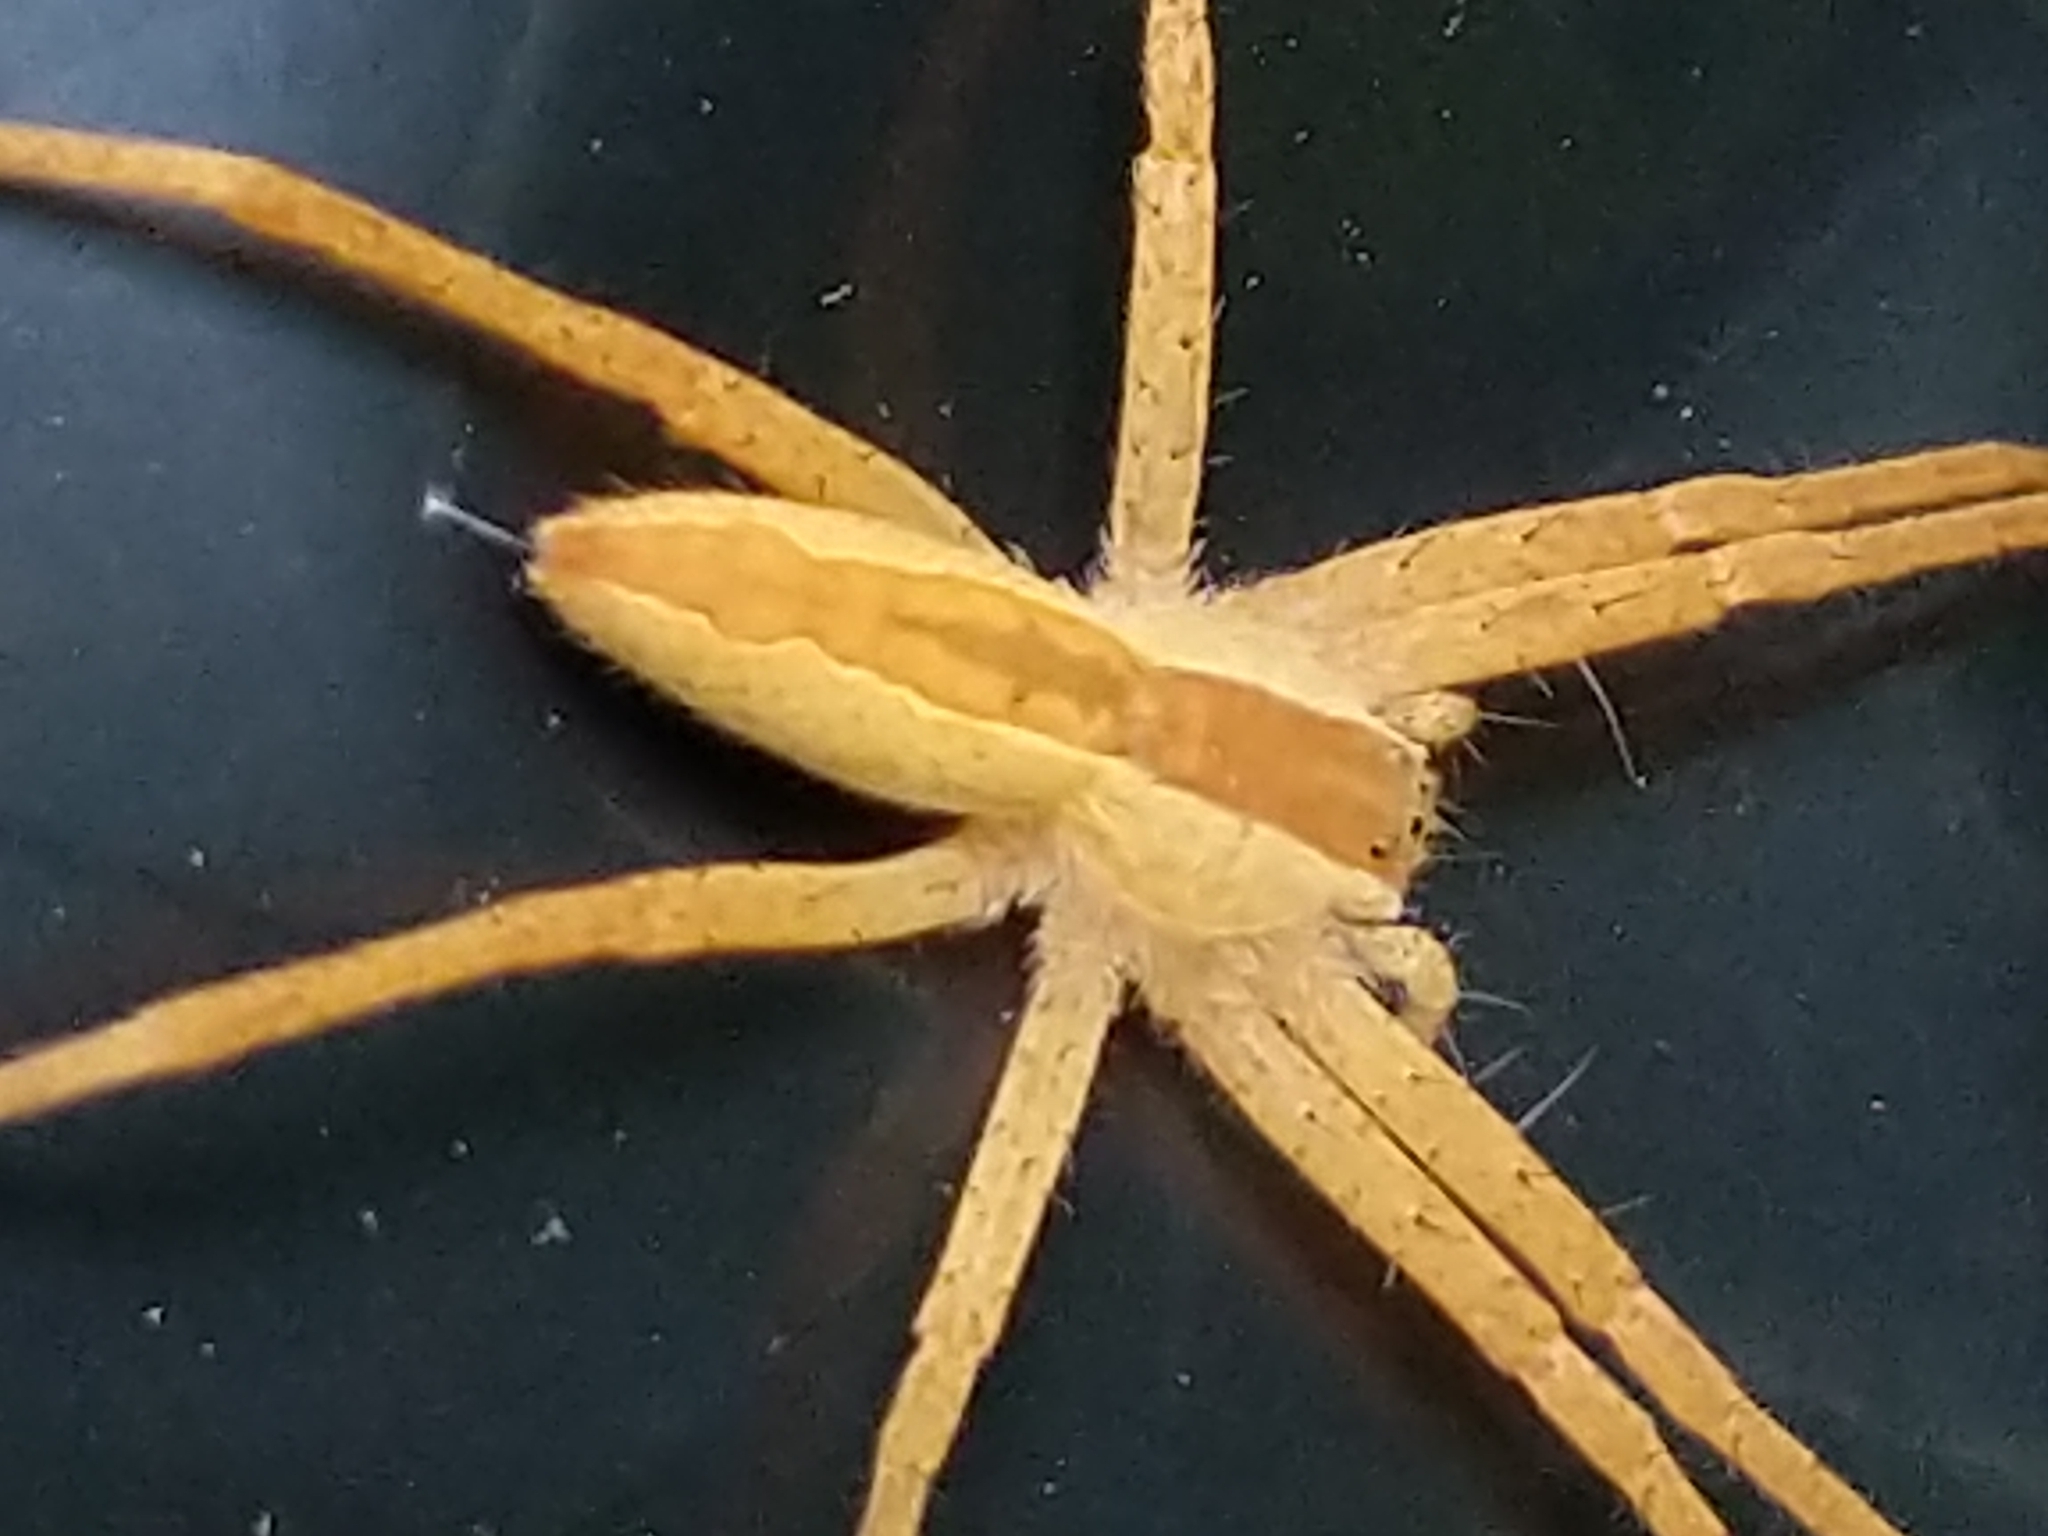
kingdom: Animalia
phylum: Arthropoda
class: Arachnida
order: Araneae
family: Pisauridae
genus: Pisaurina
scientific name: Pisaurina mira
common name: American nursery web spider
